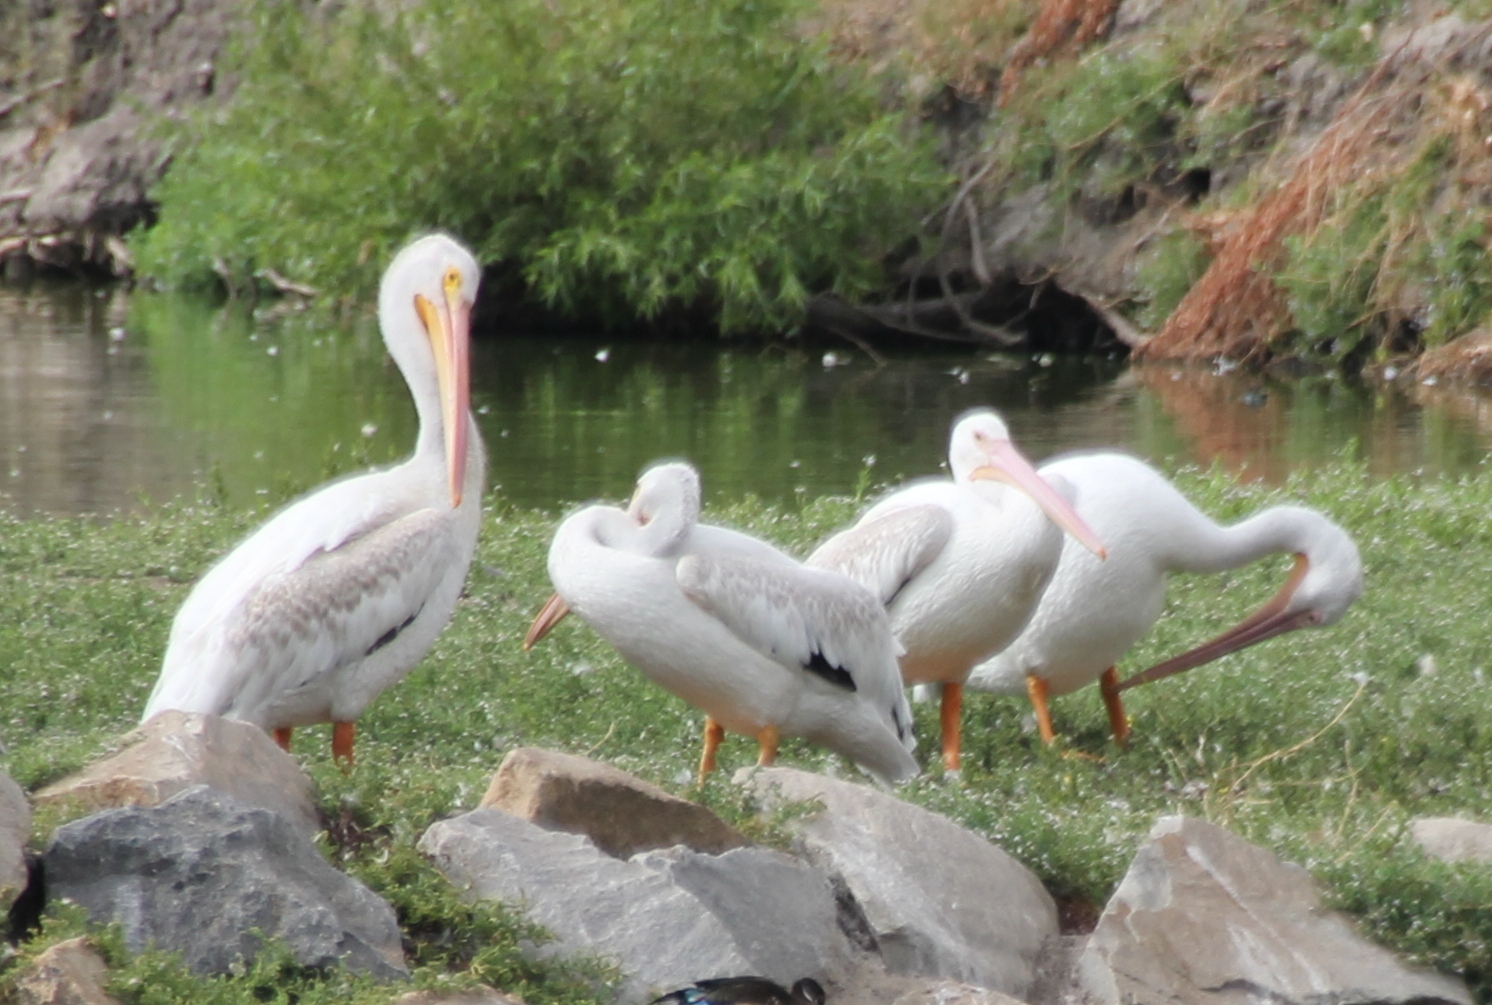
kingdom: Animalia
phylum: Chordata
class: Aves
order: Pelecaniformes
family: Pelecanidae
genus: Pelecanus
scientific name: Pelecanus erythrorhynchos
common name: American white pelican
